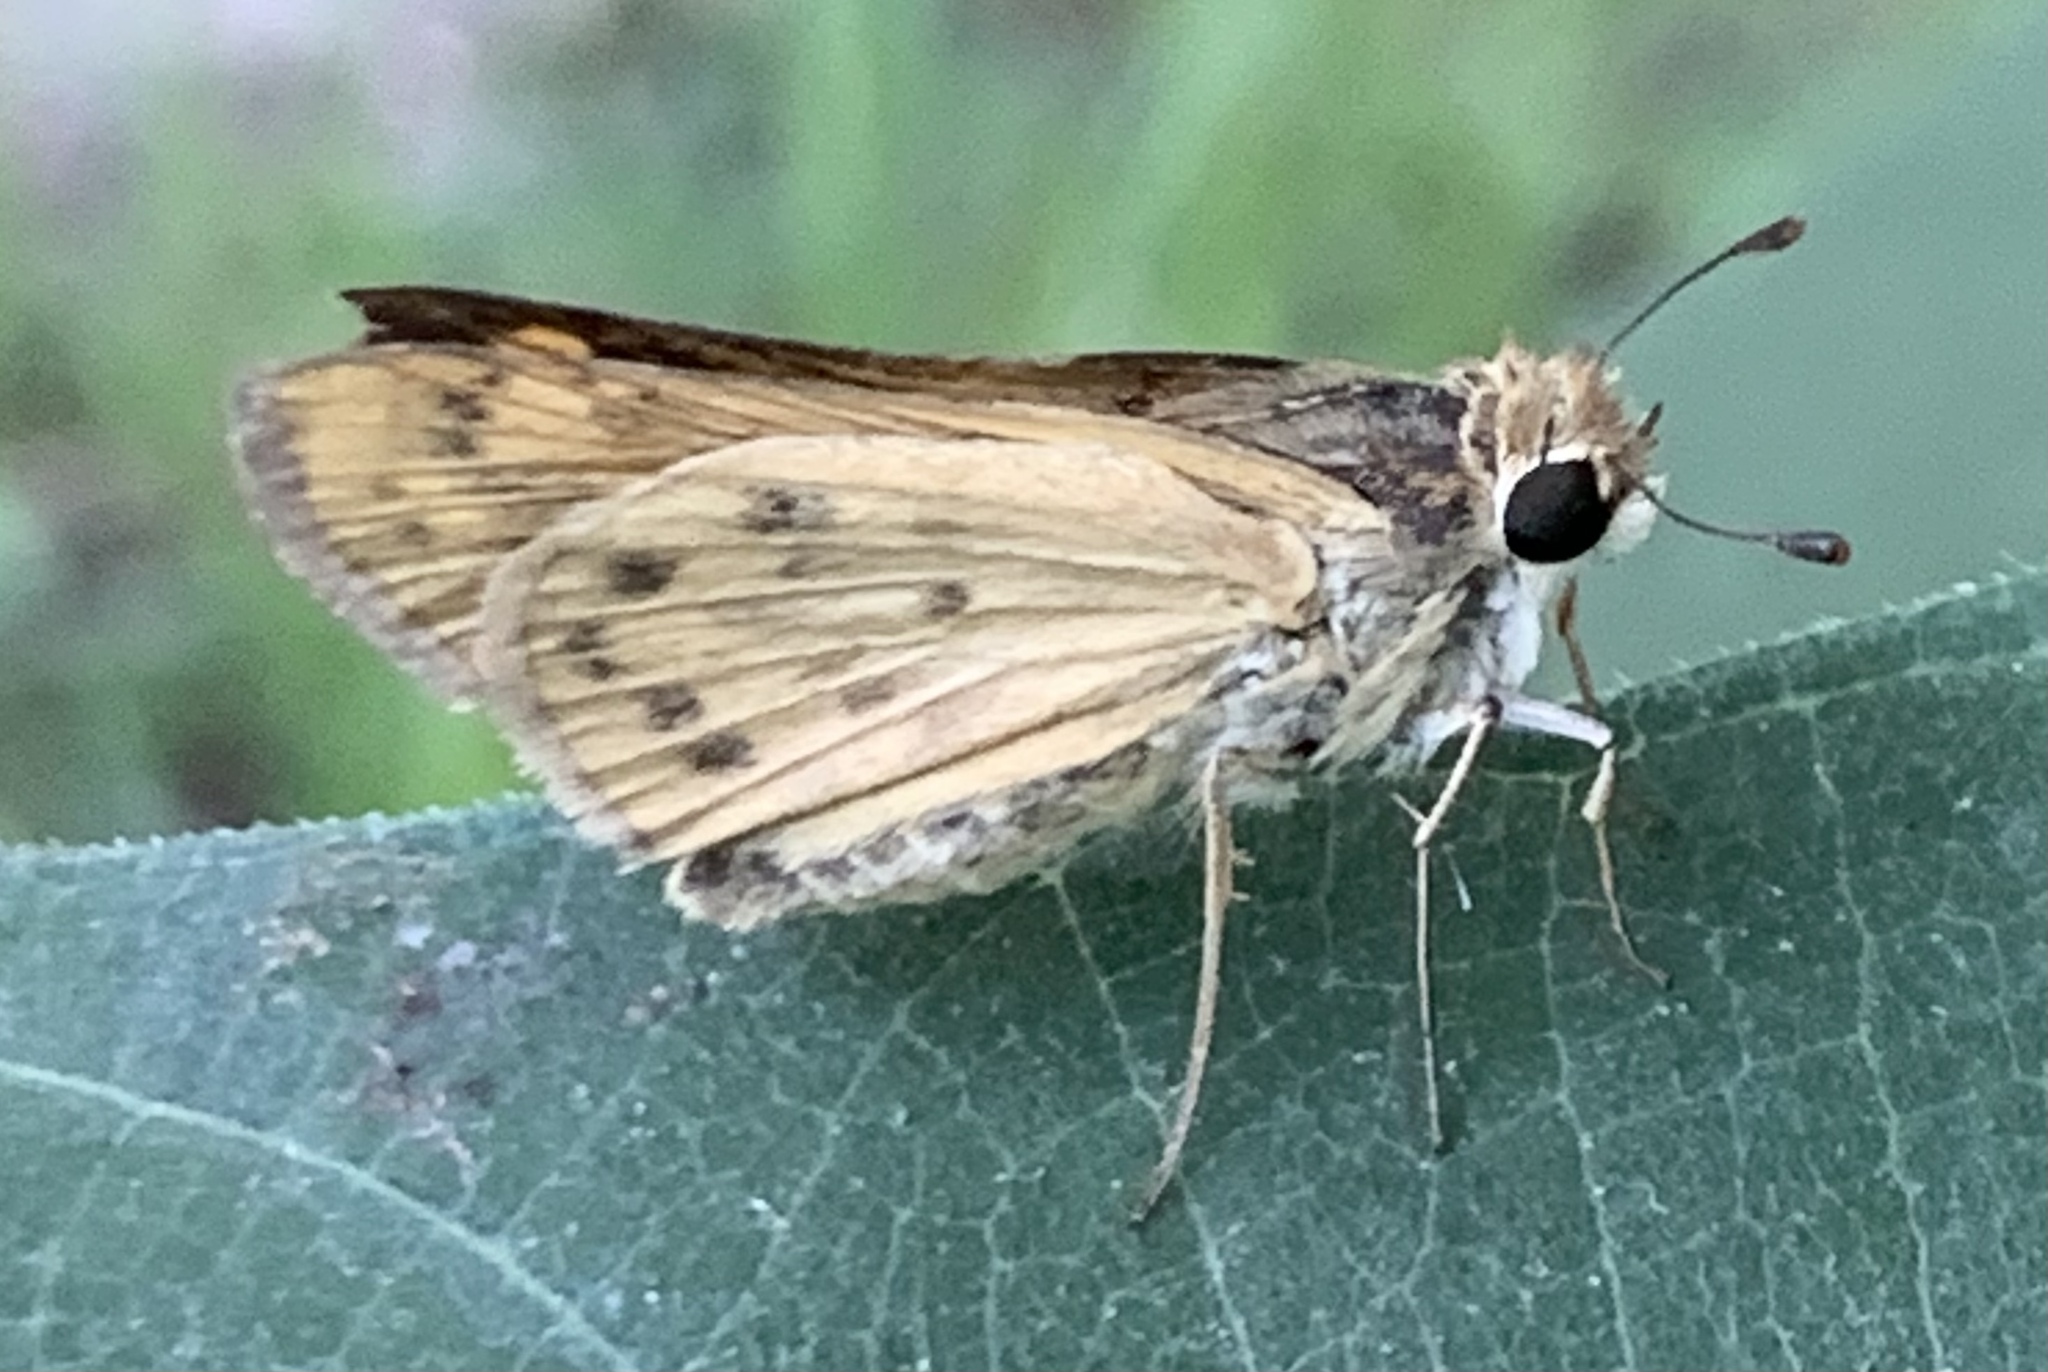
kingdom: Animalia
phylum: Arthropoda
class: Insecta
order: Lepidoptera
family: Hesperiidae
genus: Atalopedes
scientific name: Atalopedes
